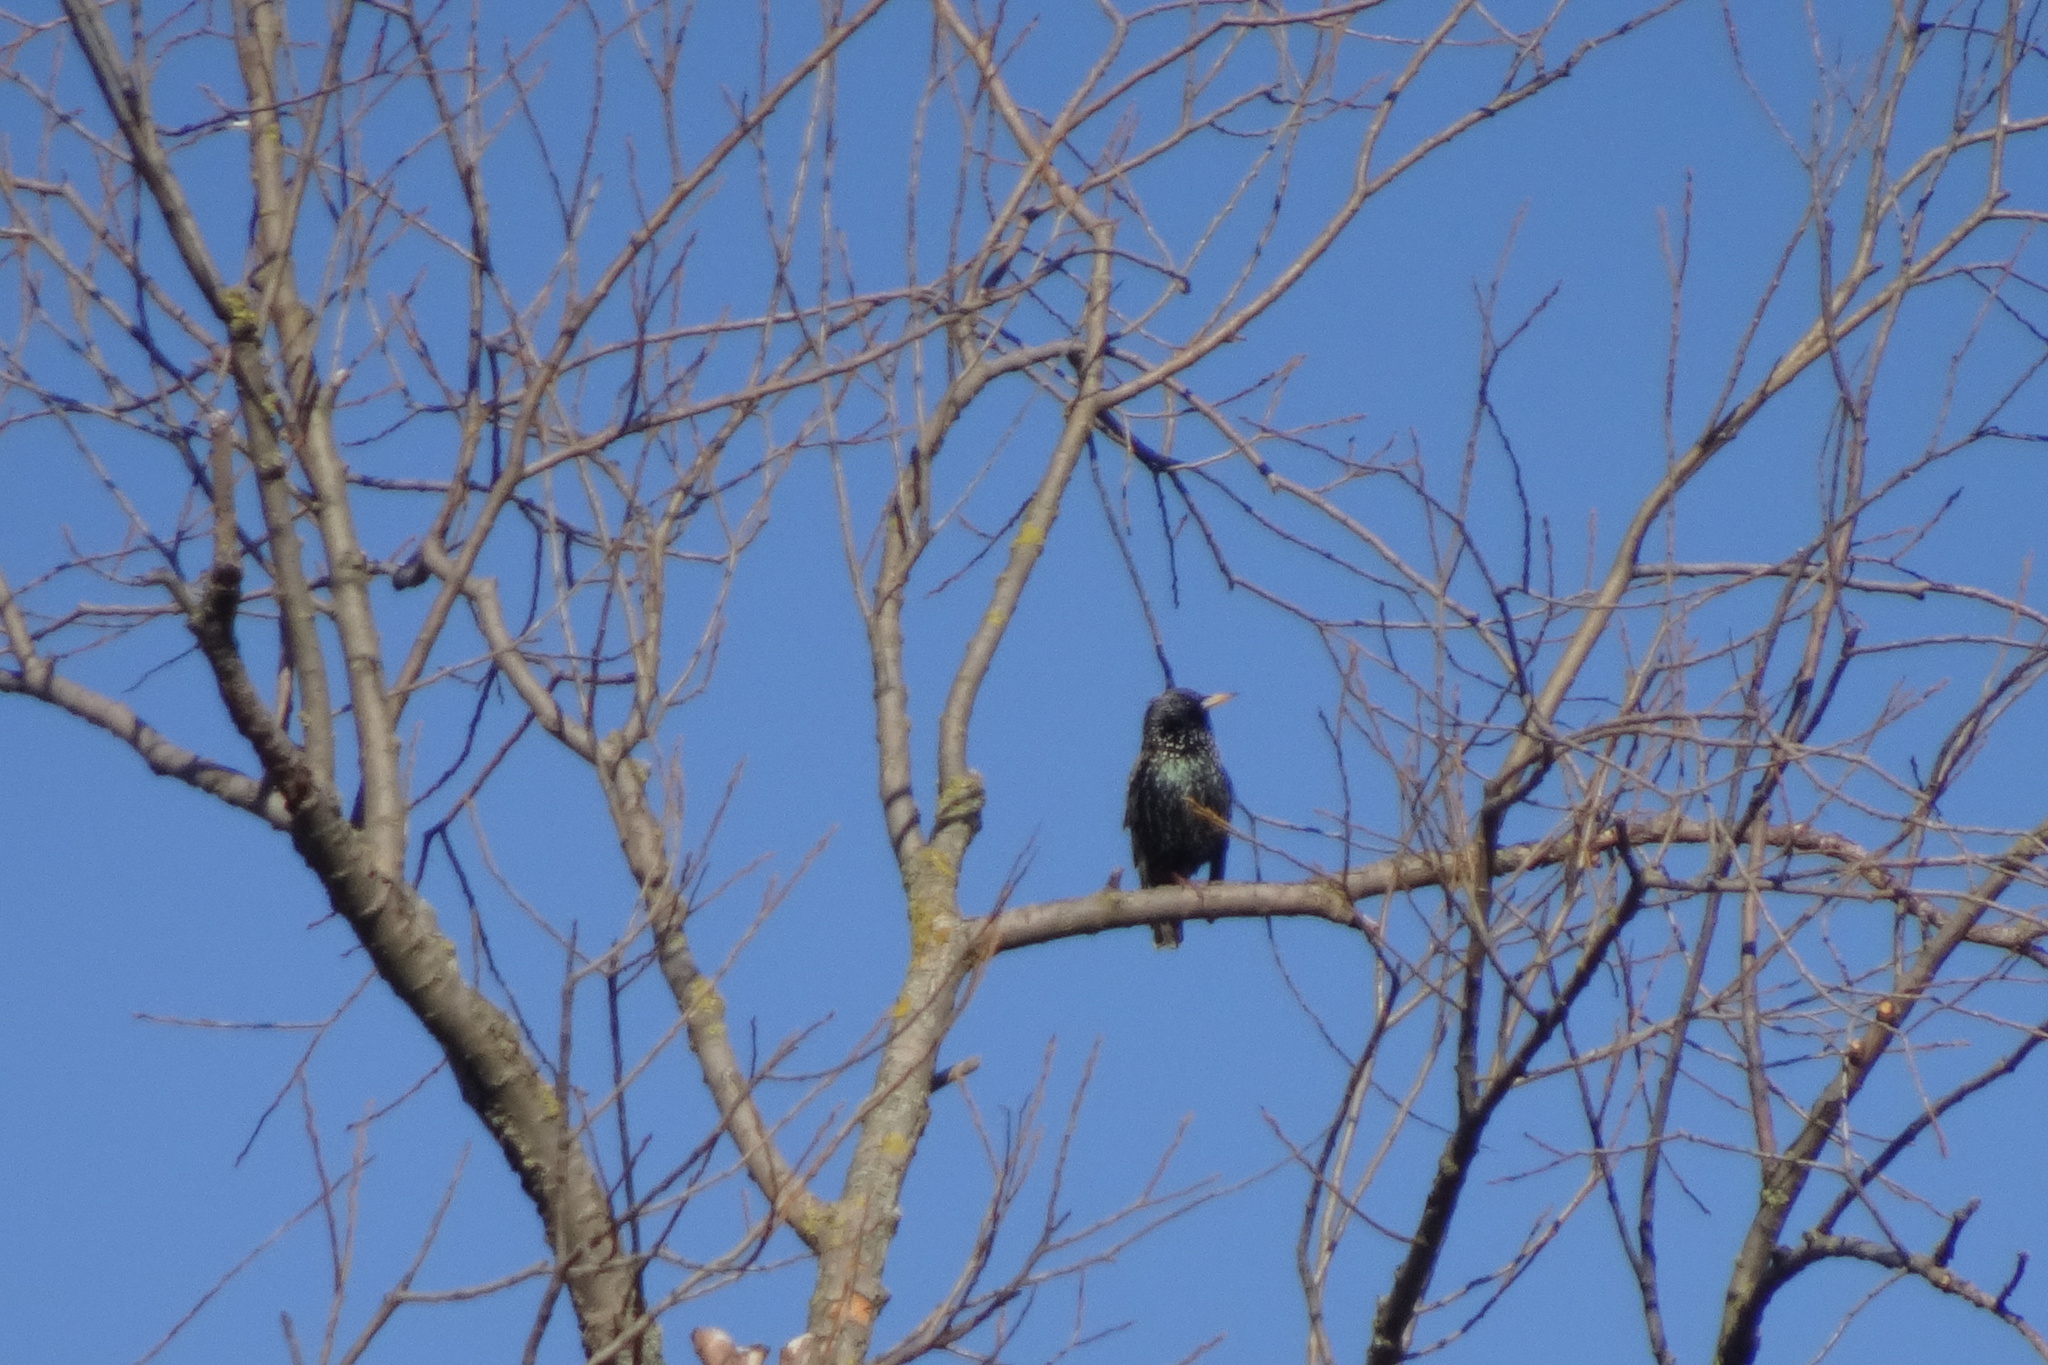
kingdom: Animalia
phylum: Chordata
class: Aves
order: Passeriformes
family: Sturnidae
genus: Sturnus
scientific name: Sturnus vulgaris
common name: Common starling
